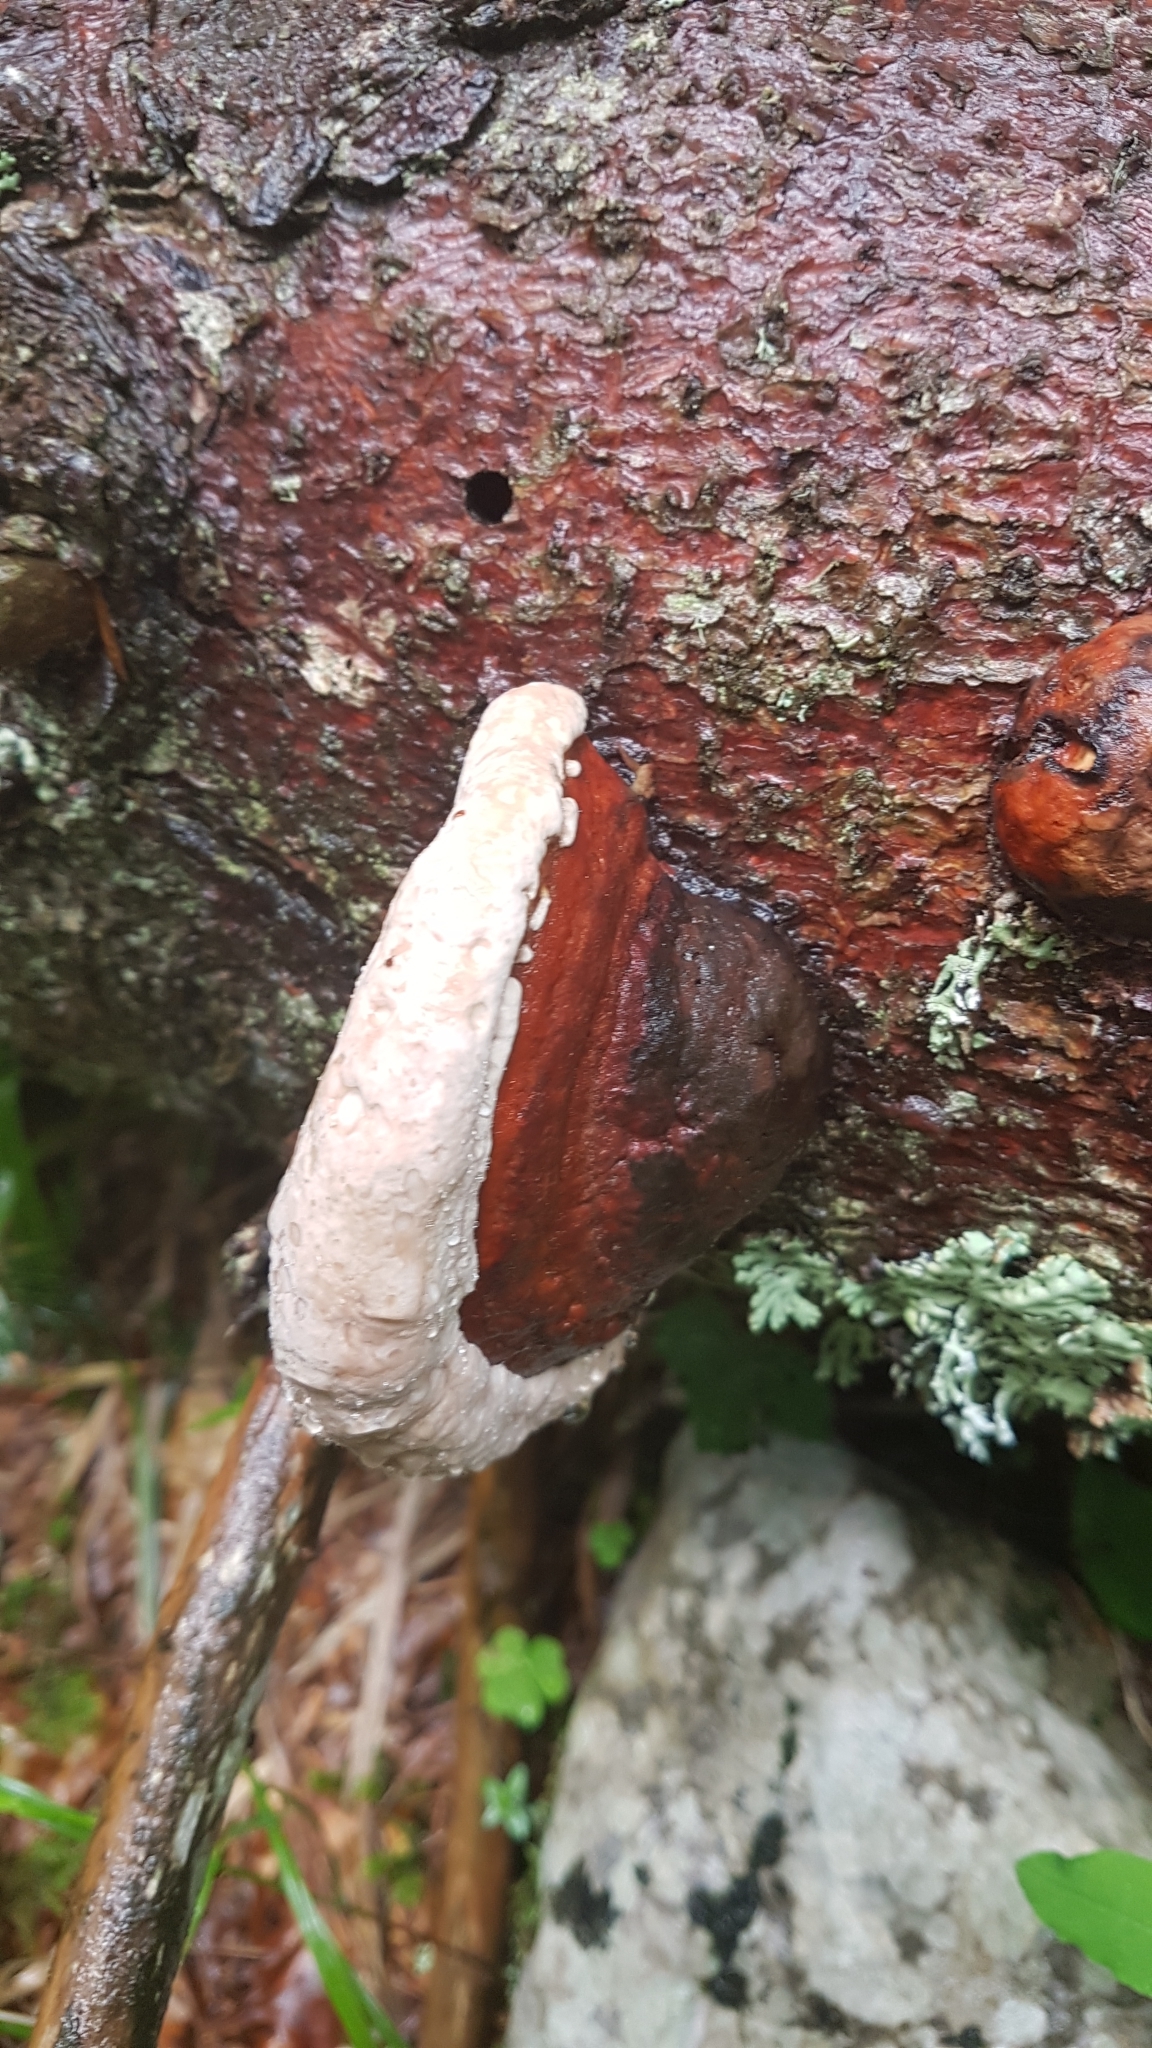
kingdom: Fungi
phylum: Basidiomycota
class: Agaricomycetes
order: Polyporales
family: Fomitopsidaceae
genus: Fomitopsis
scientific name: Fomitopsis pinicola
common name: Red-belted bracket
